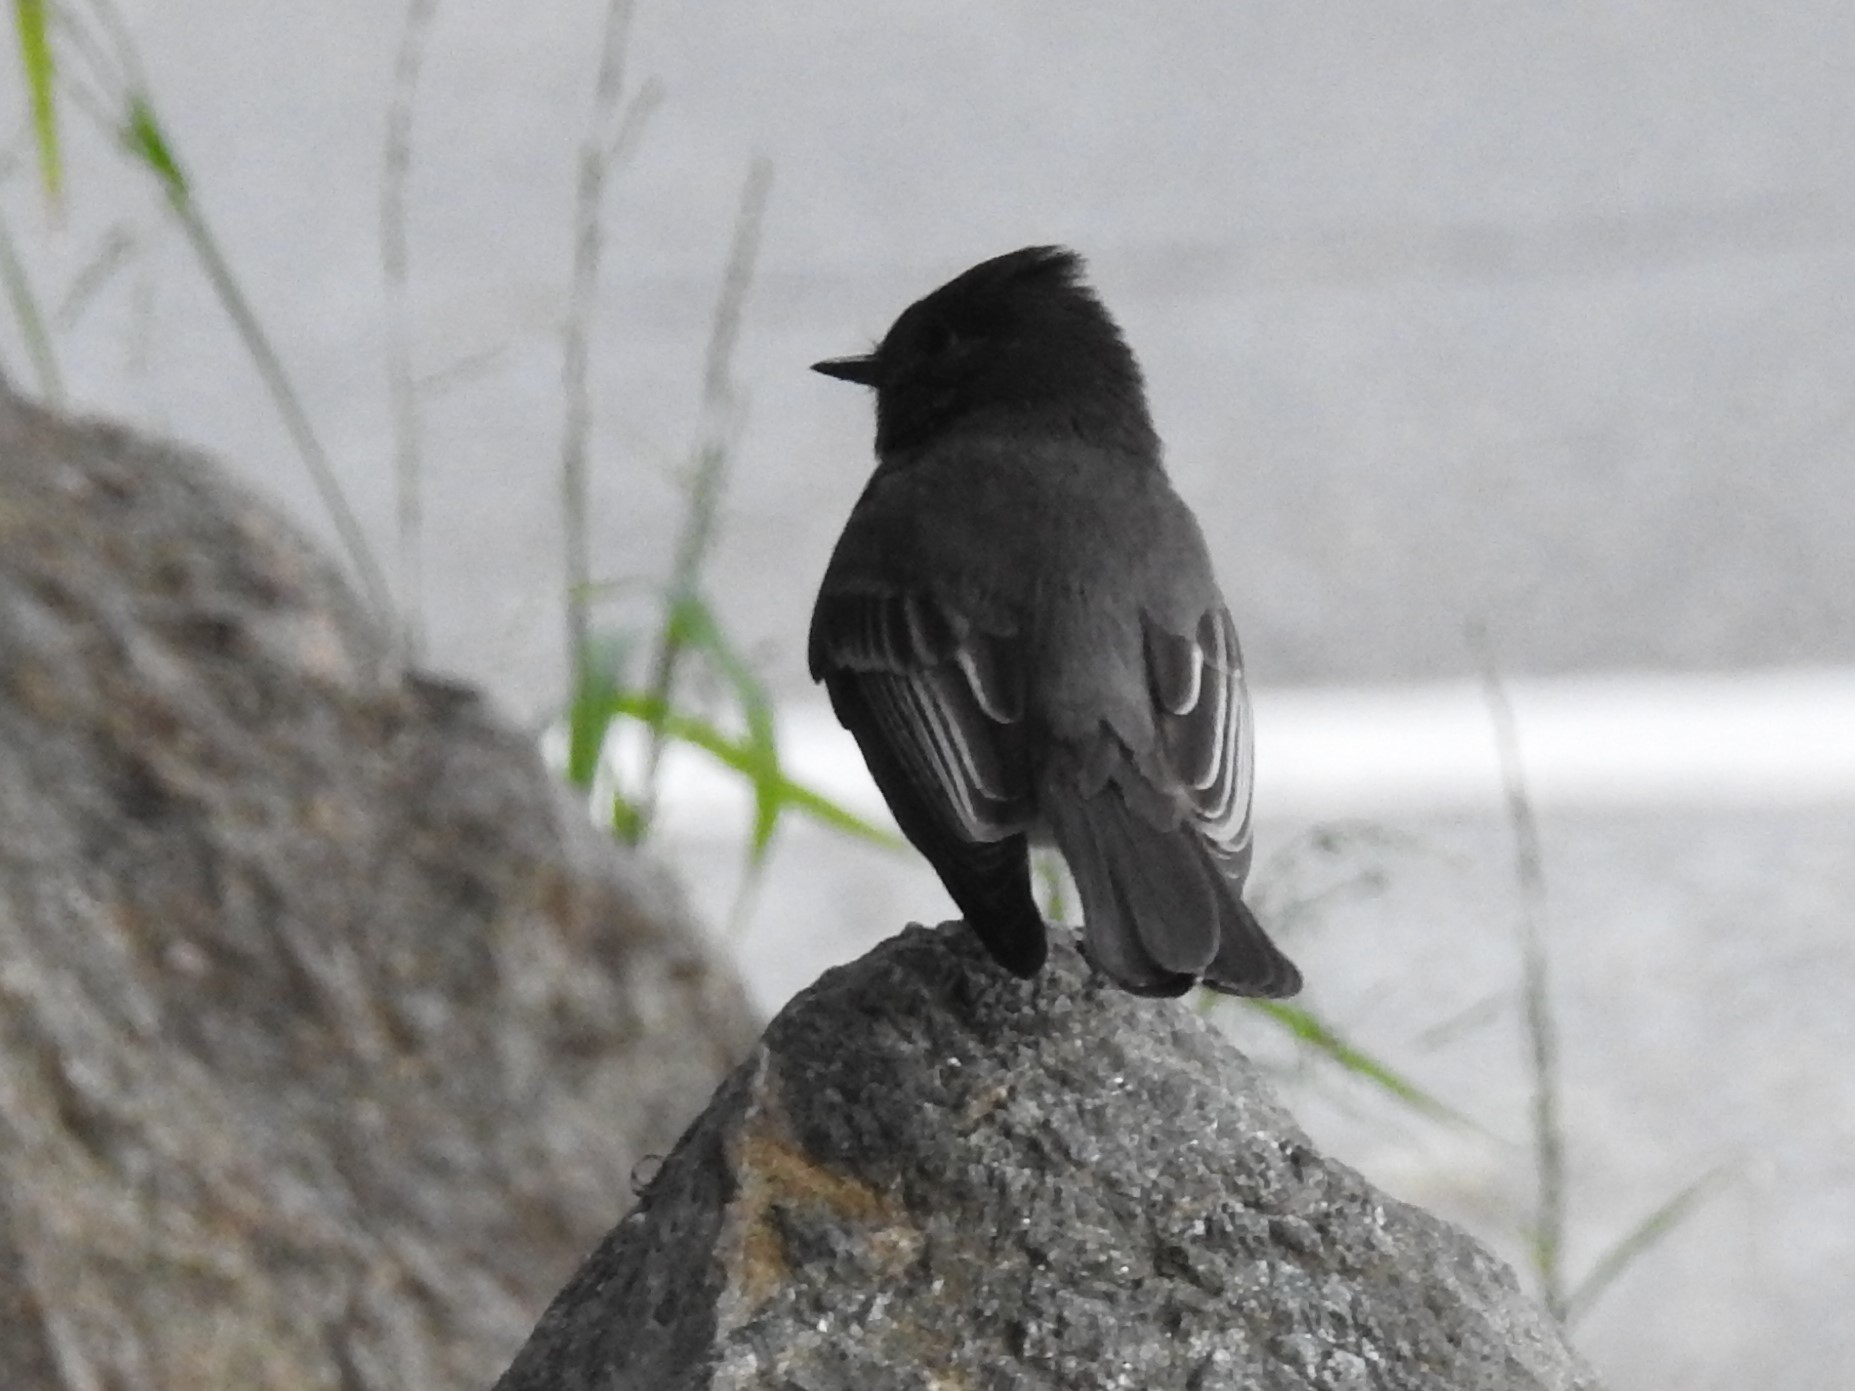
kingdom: Animalia
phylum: Chordata
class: Aves
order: Passeriformes
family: Tyrannidae
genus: Sayornis
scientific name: Sayornis nigricans
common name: Black phoebe
